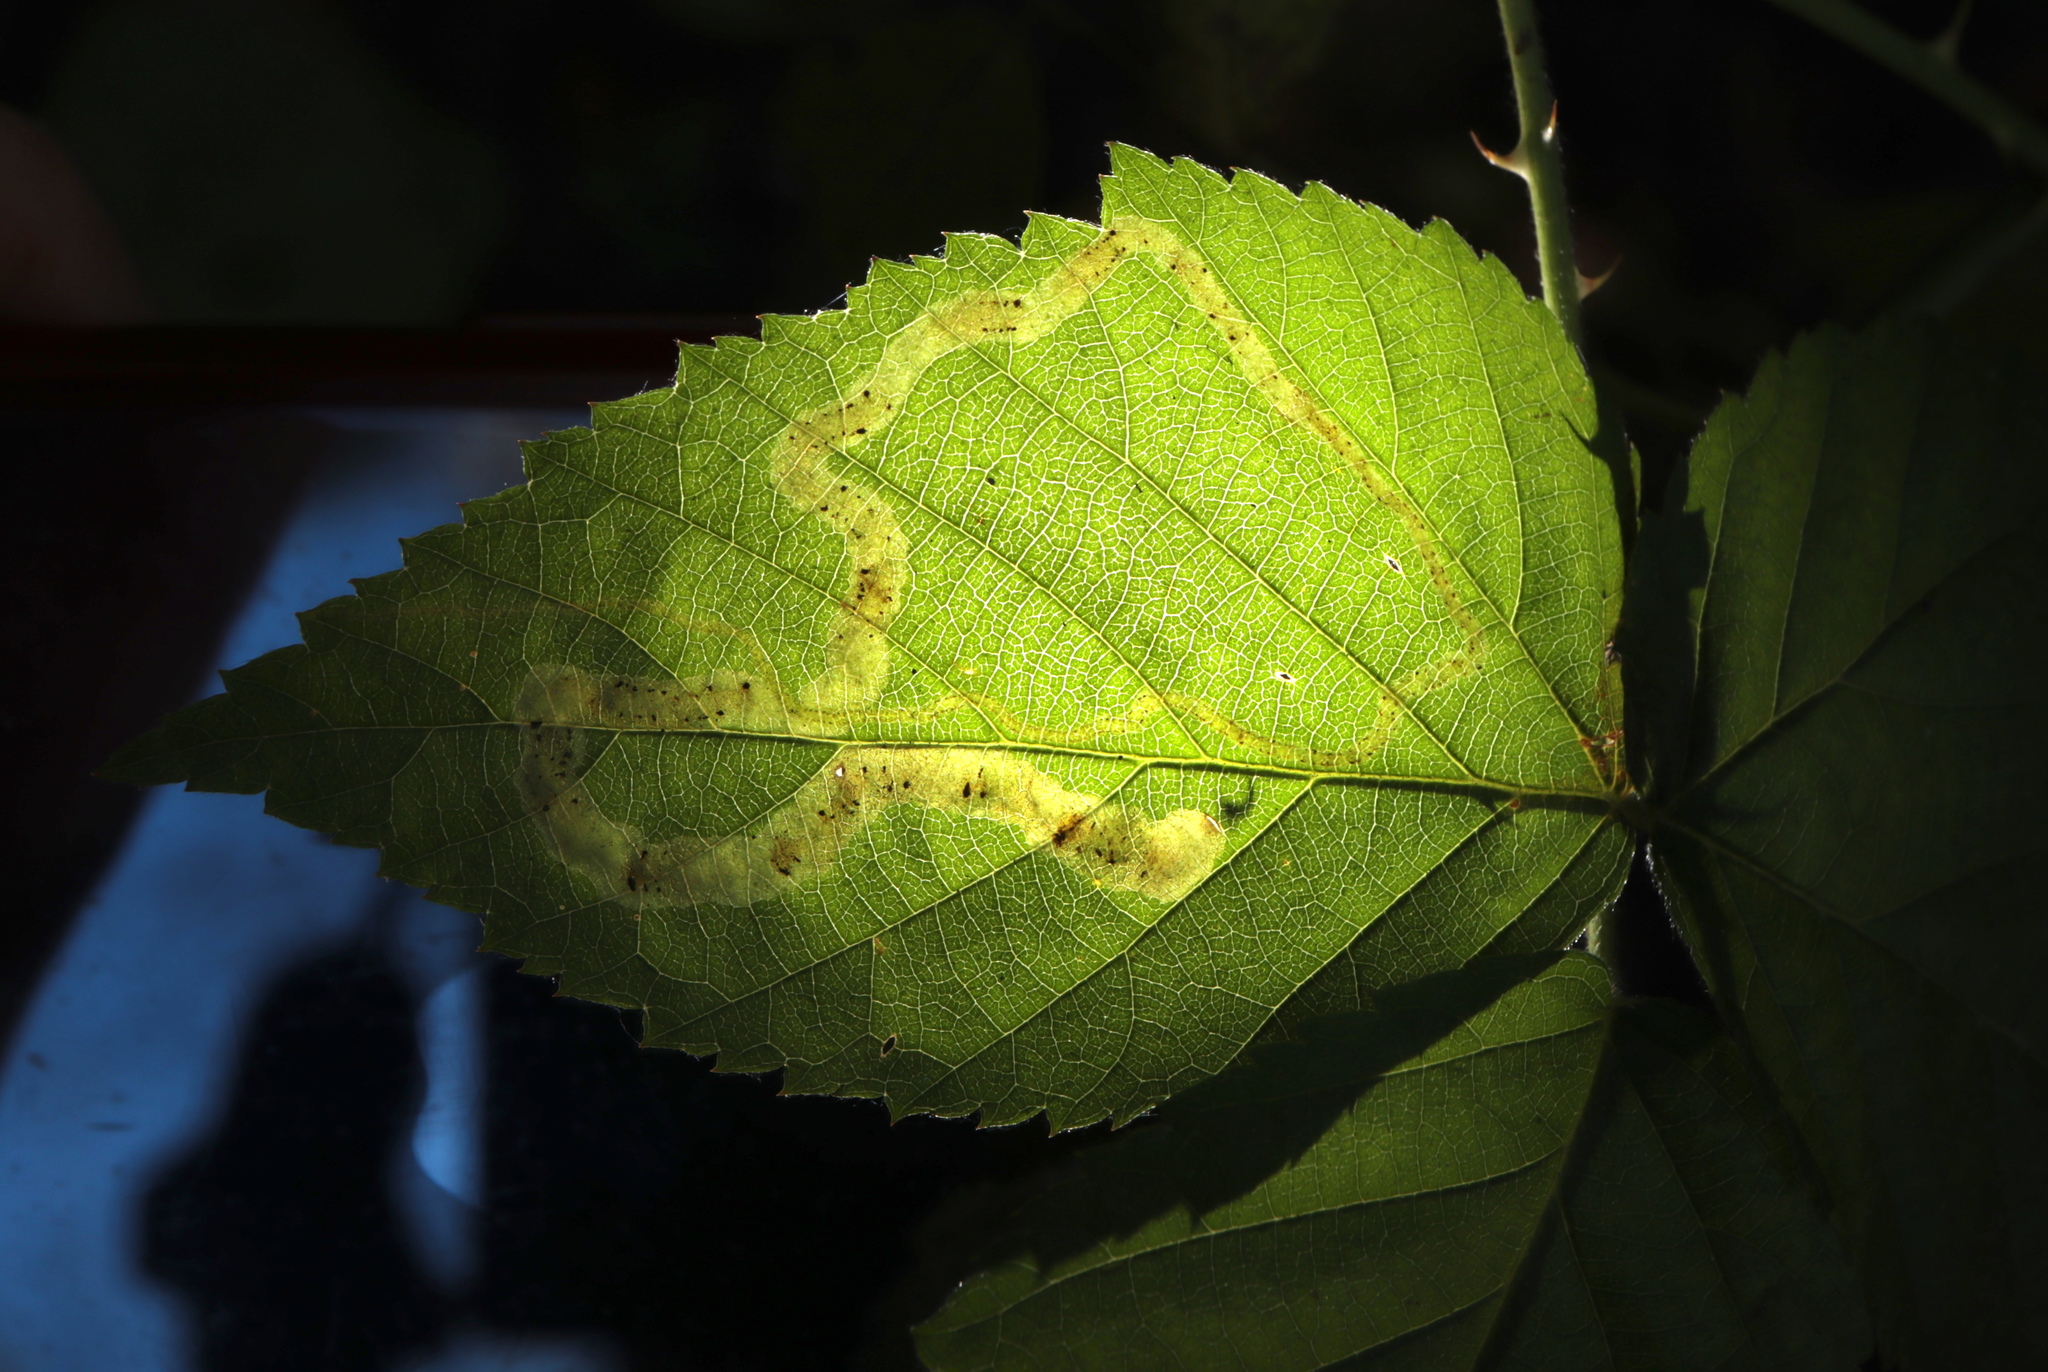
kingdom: Animalia
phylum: Arthropoda
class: Insecta
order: Diptera
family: Agromyzidae
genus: Agromyza
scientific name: Agromyza vockerothi
